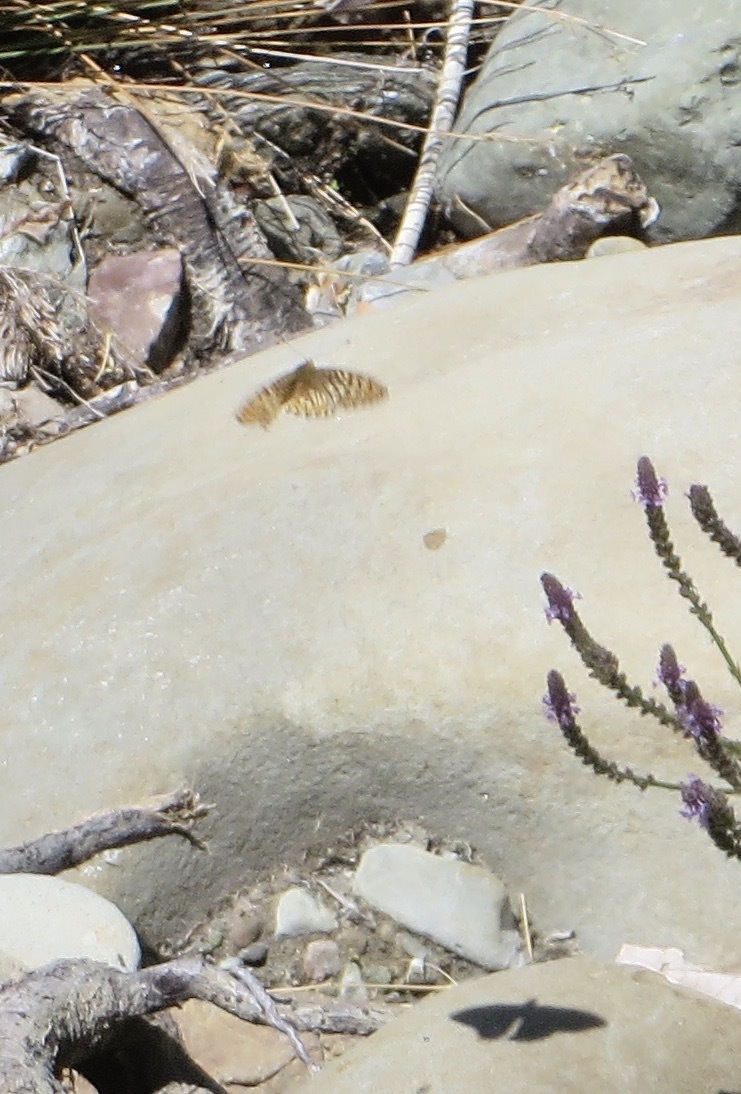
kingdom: Animalia
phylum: Arthropoda
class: Insecta
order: Lepidoptera
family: Nymphalidae
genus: Speyeria
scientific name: Speyeria callippe
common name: Callippe fritillary
